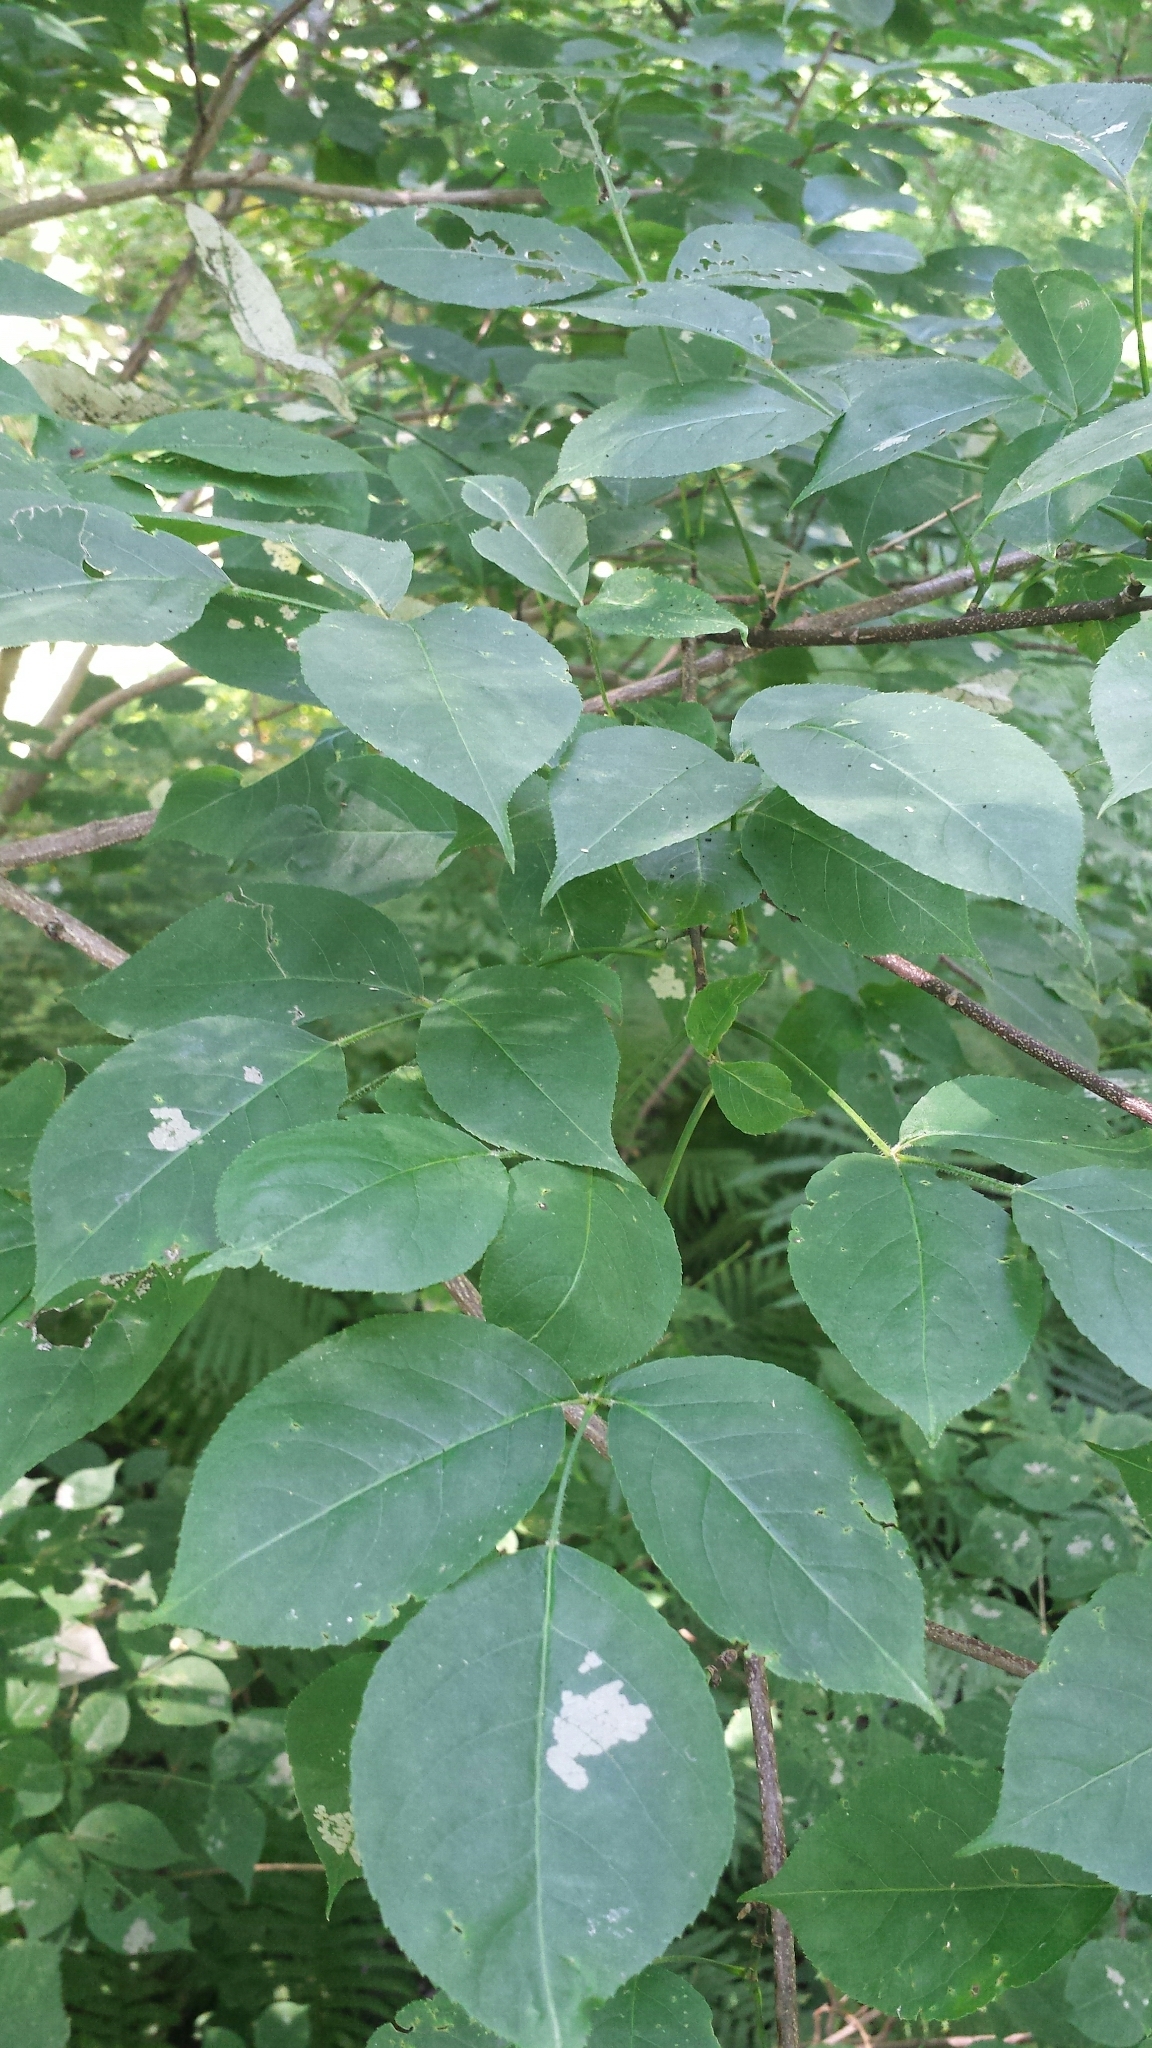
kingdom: Plantae
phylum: Tracheophyta
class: Magnoliopsida
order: Crossosomatales
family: Staphyleaceae
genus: Staphylea
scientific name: Staphylea trifolia
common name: American bladdernut
